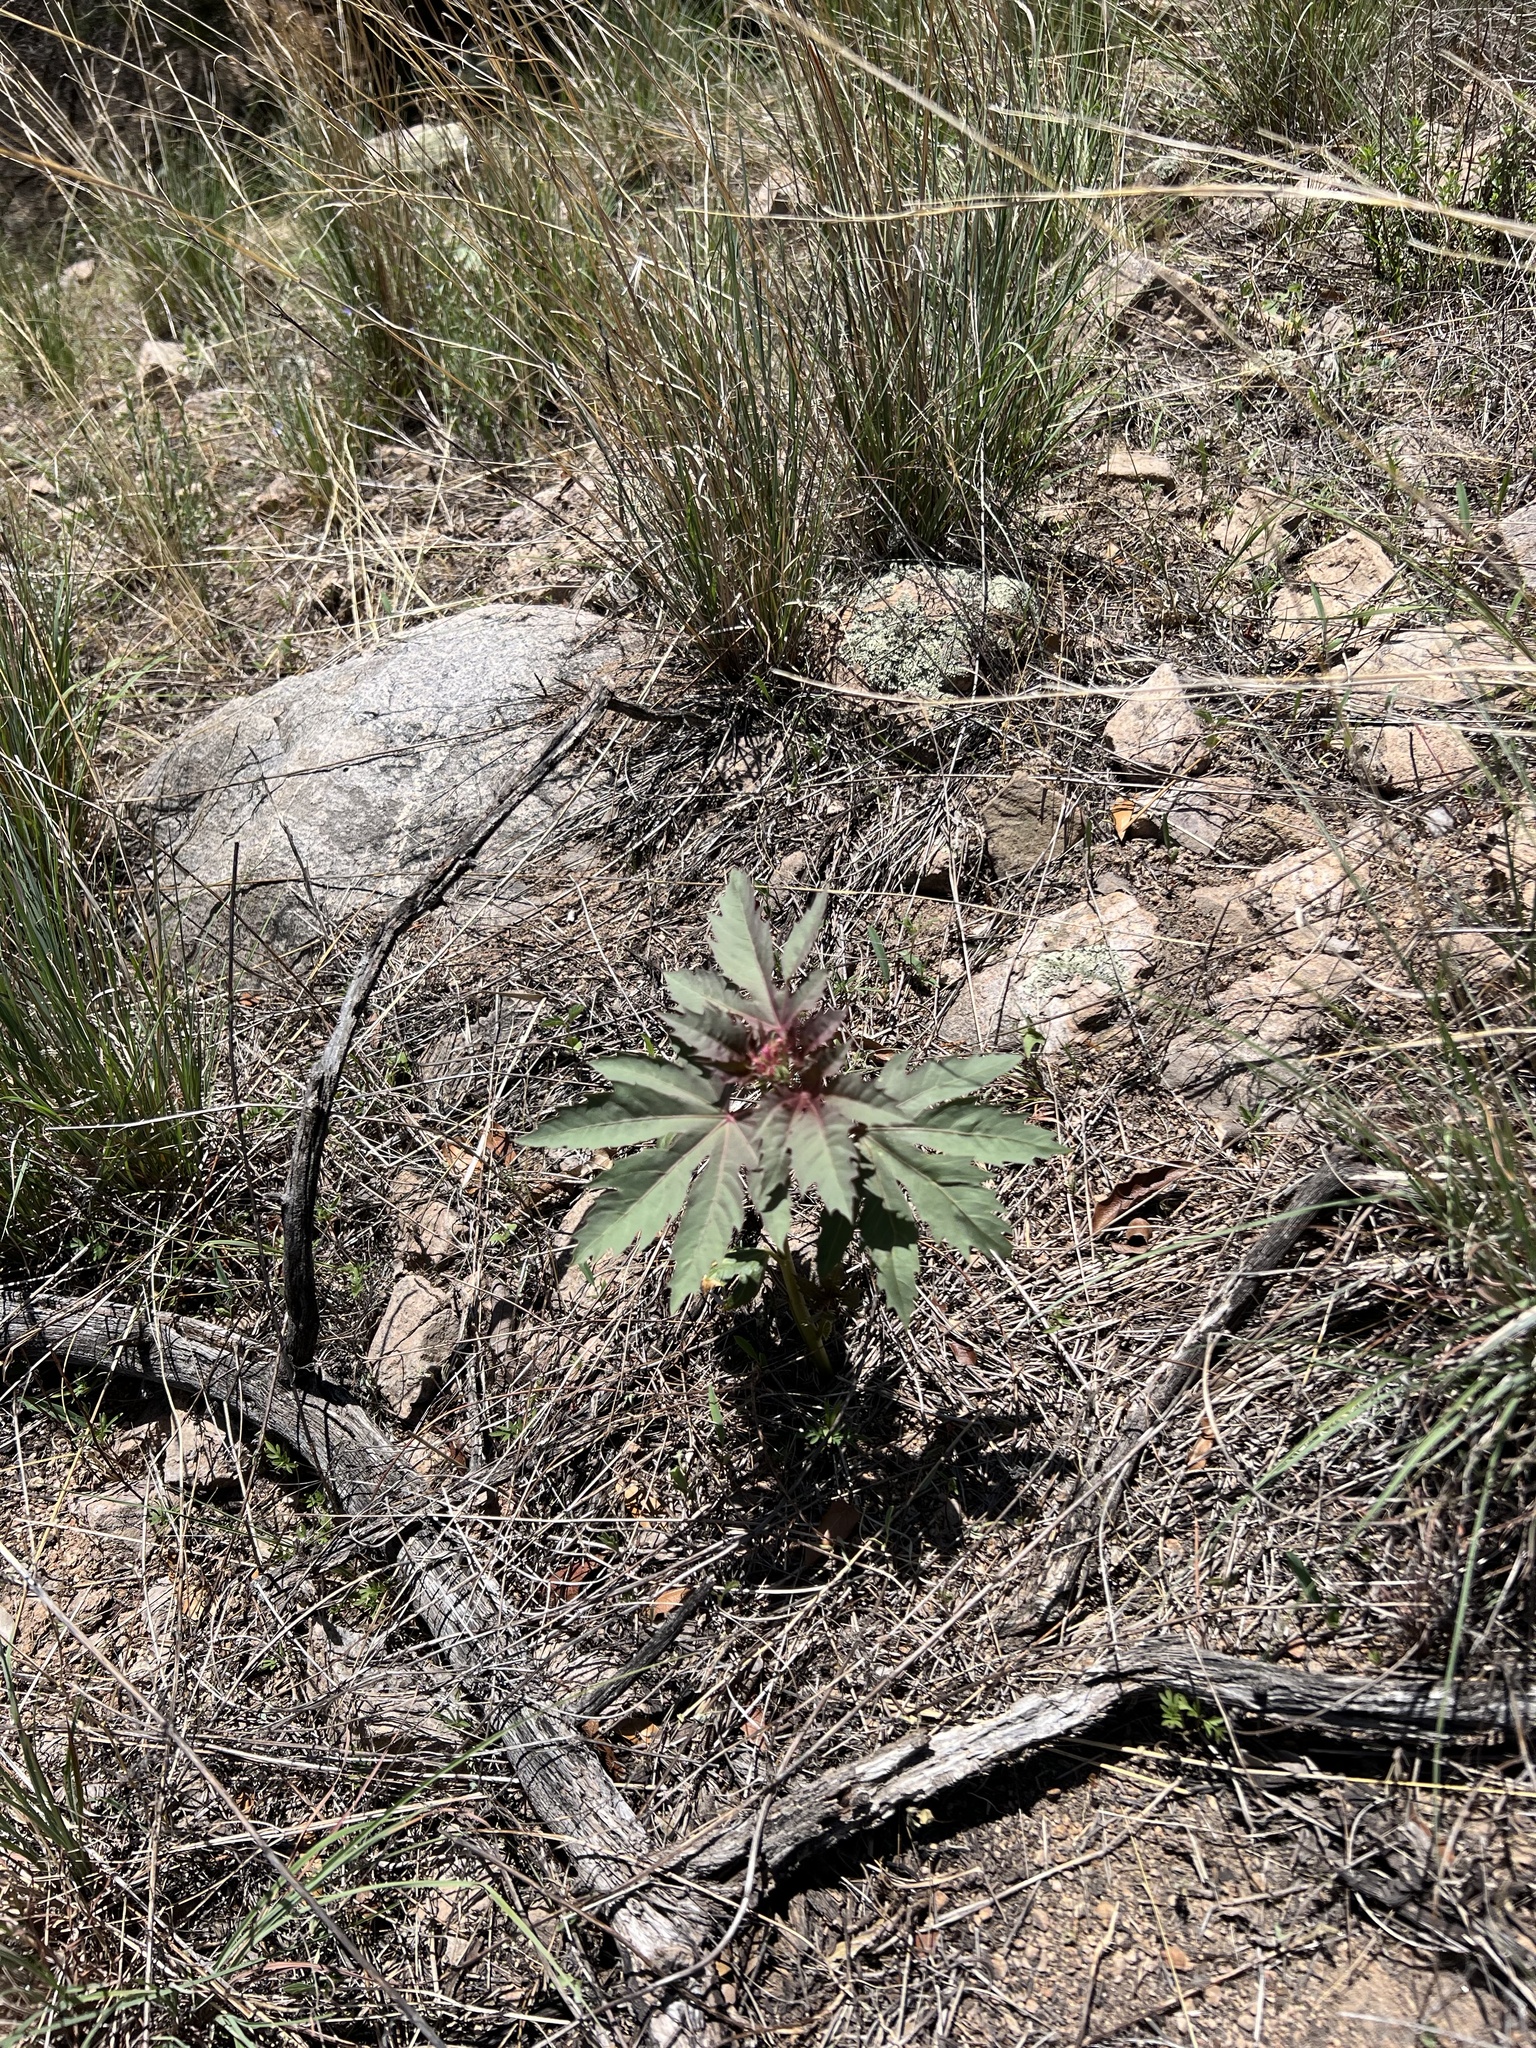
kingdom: Plantae
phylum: Tracheophyta
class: Magnoliopsida
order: Malpighiales
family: Euphorbiaceae
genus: Jatropha
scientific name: Jatropha macrorhiza
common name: Ragged nettlespurge
